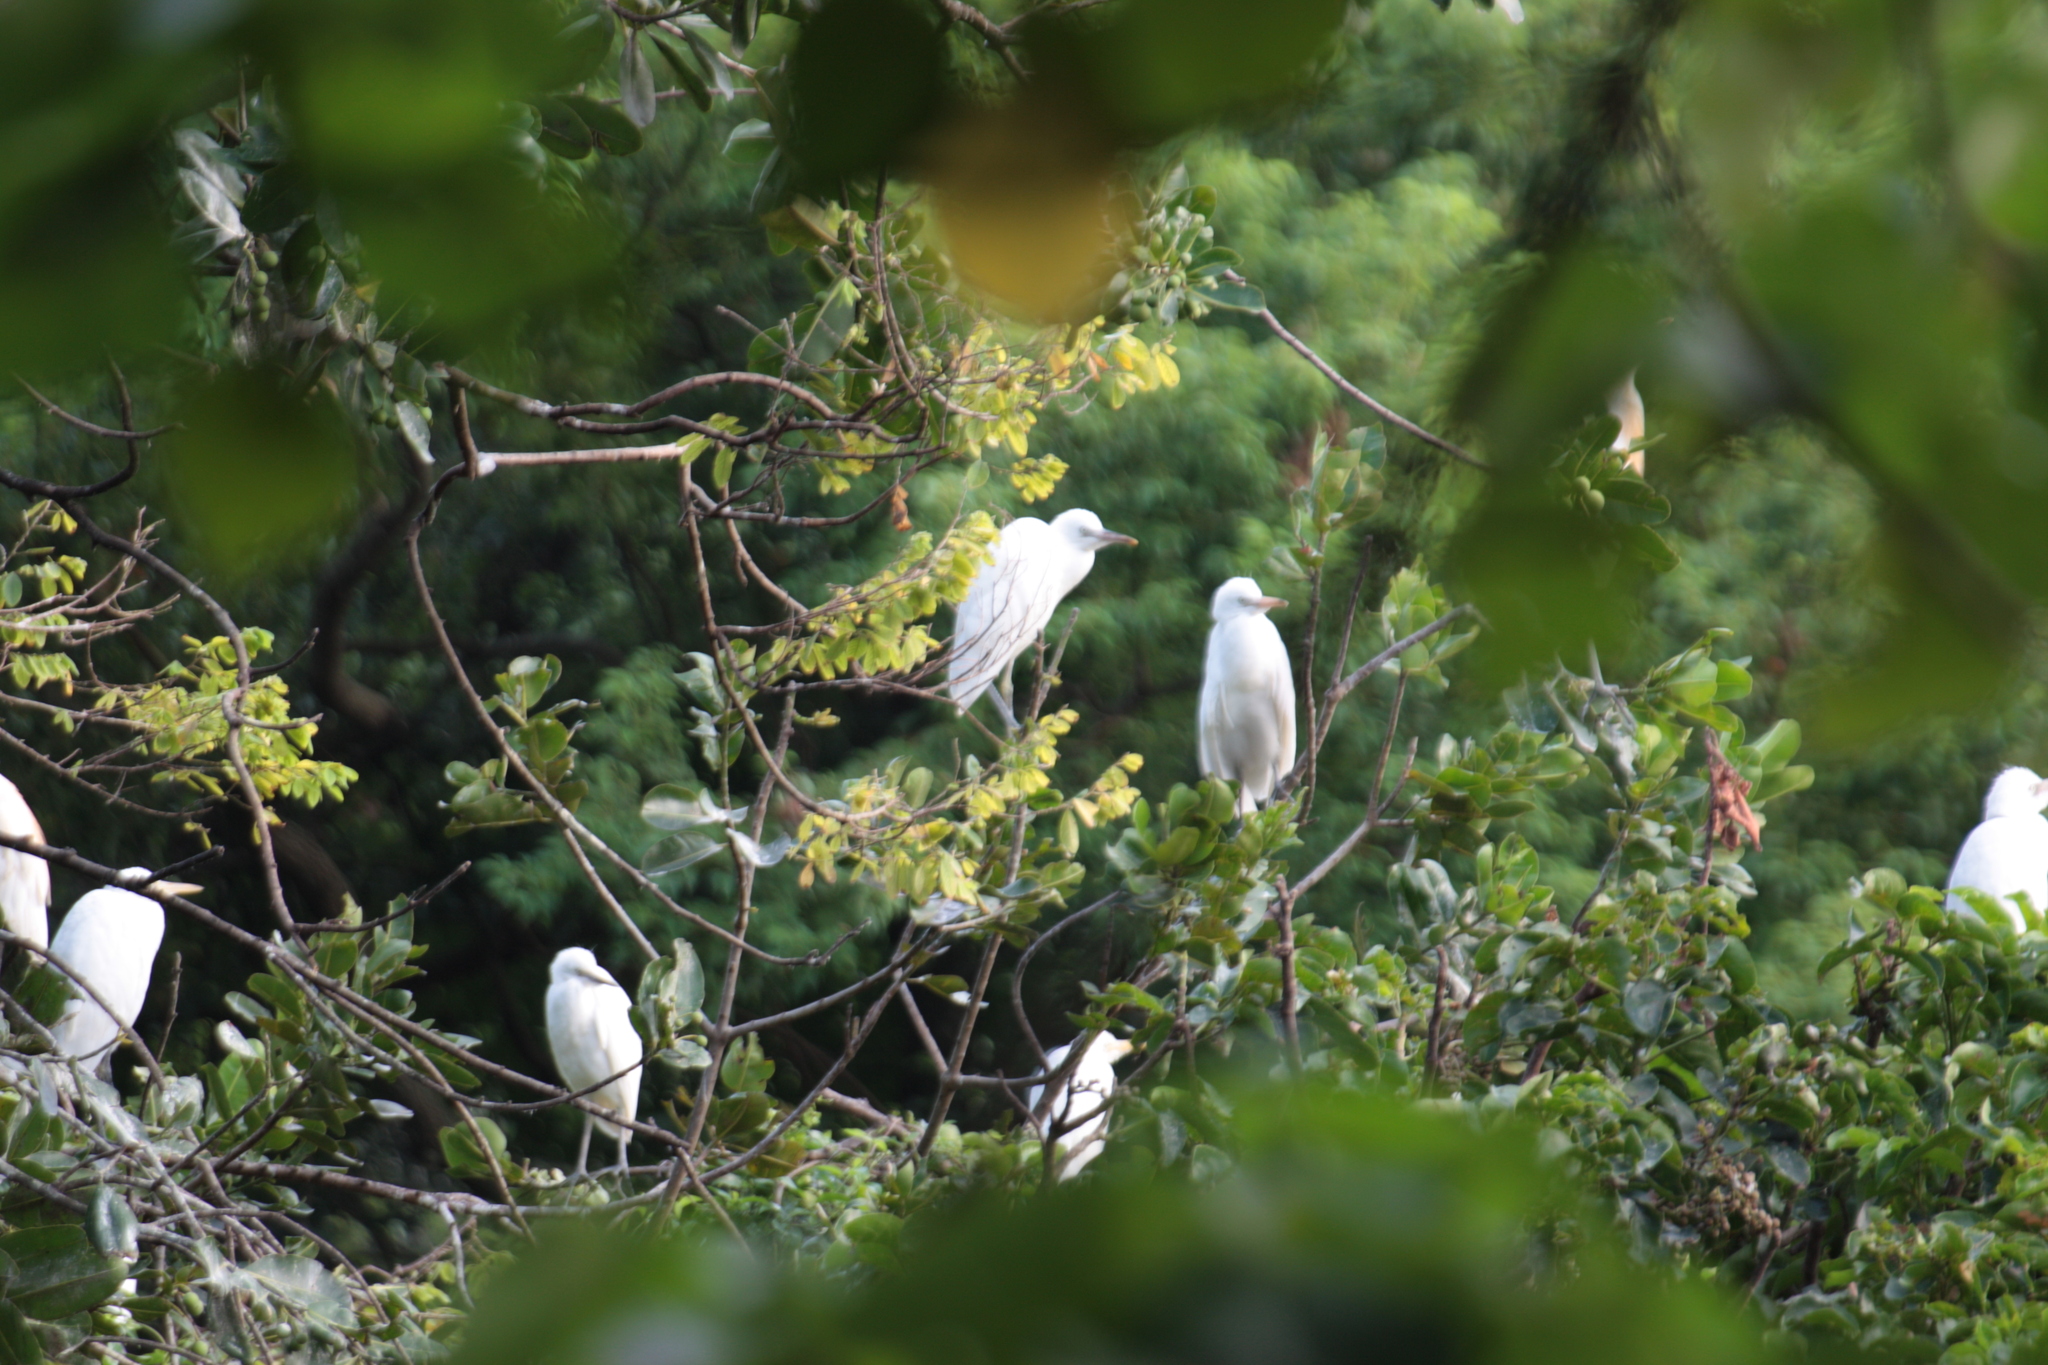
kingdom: Animalia
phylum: Chordata
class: Aves
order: Pelecaniformes
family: Ardeidae
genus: Bubulcus
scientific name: Bubulcus coromandus
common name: Eastern cattle egret
